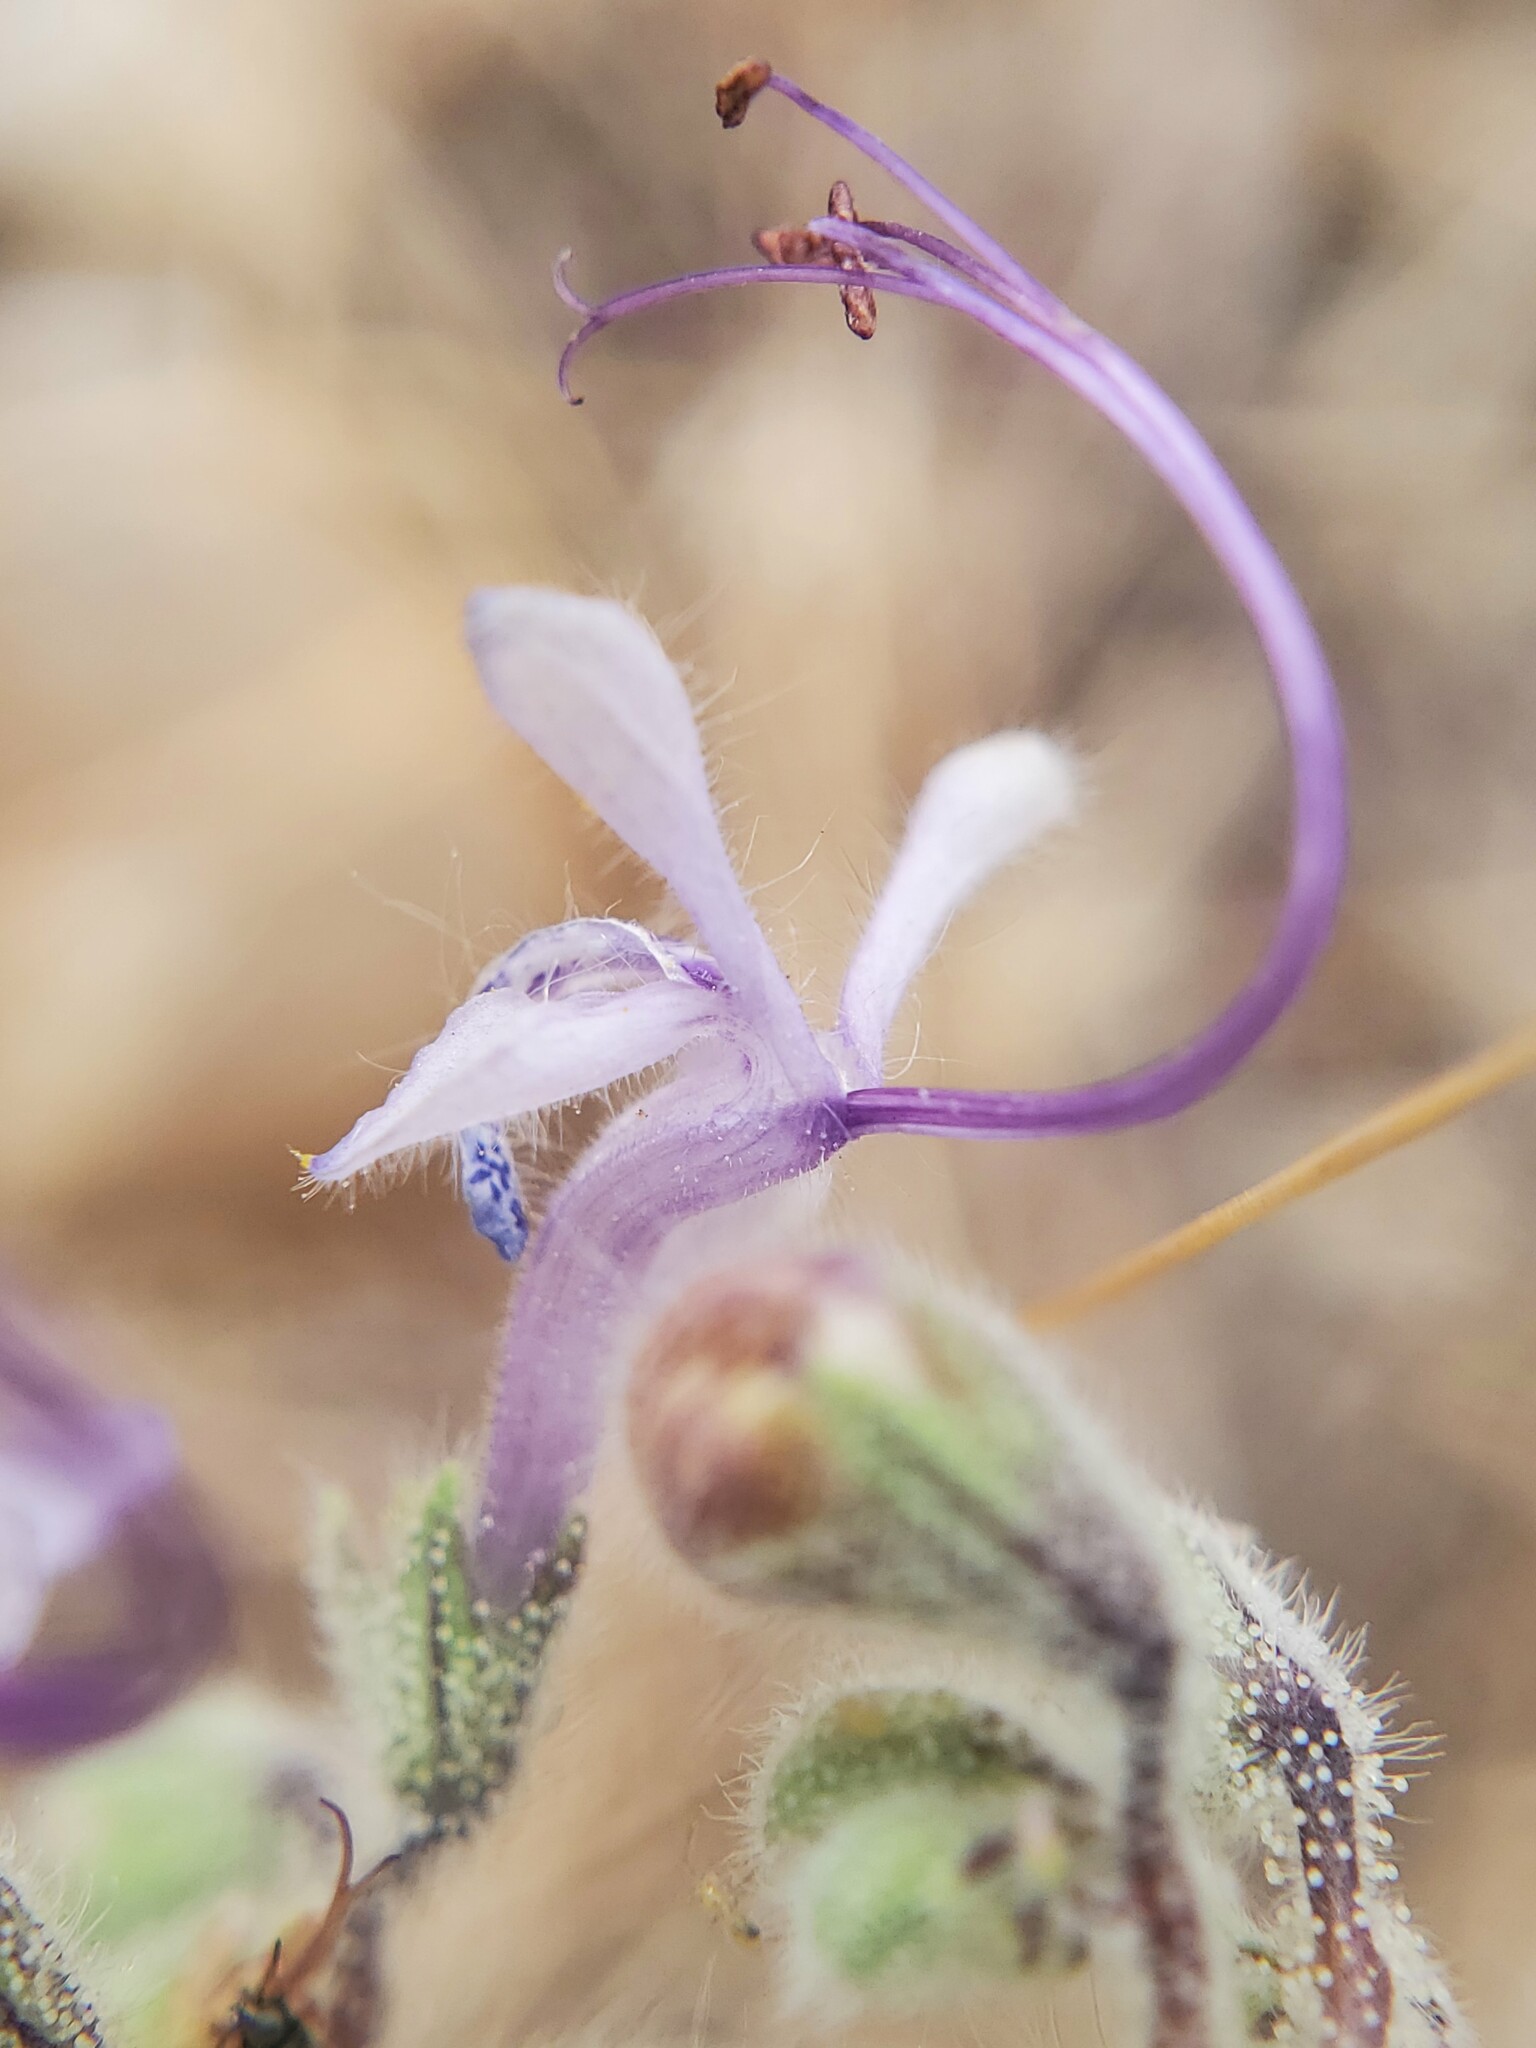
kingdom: Plantae
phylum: Tracheophyta
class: Magnoliopsida
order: Lamiales
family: Lamiaceae
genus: Trichostema
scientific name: Trichostema lanceolatum
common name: Vinegar-weed
